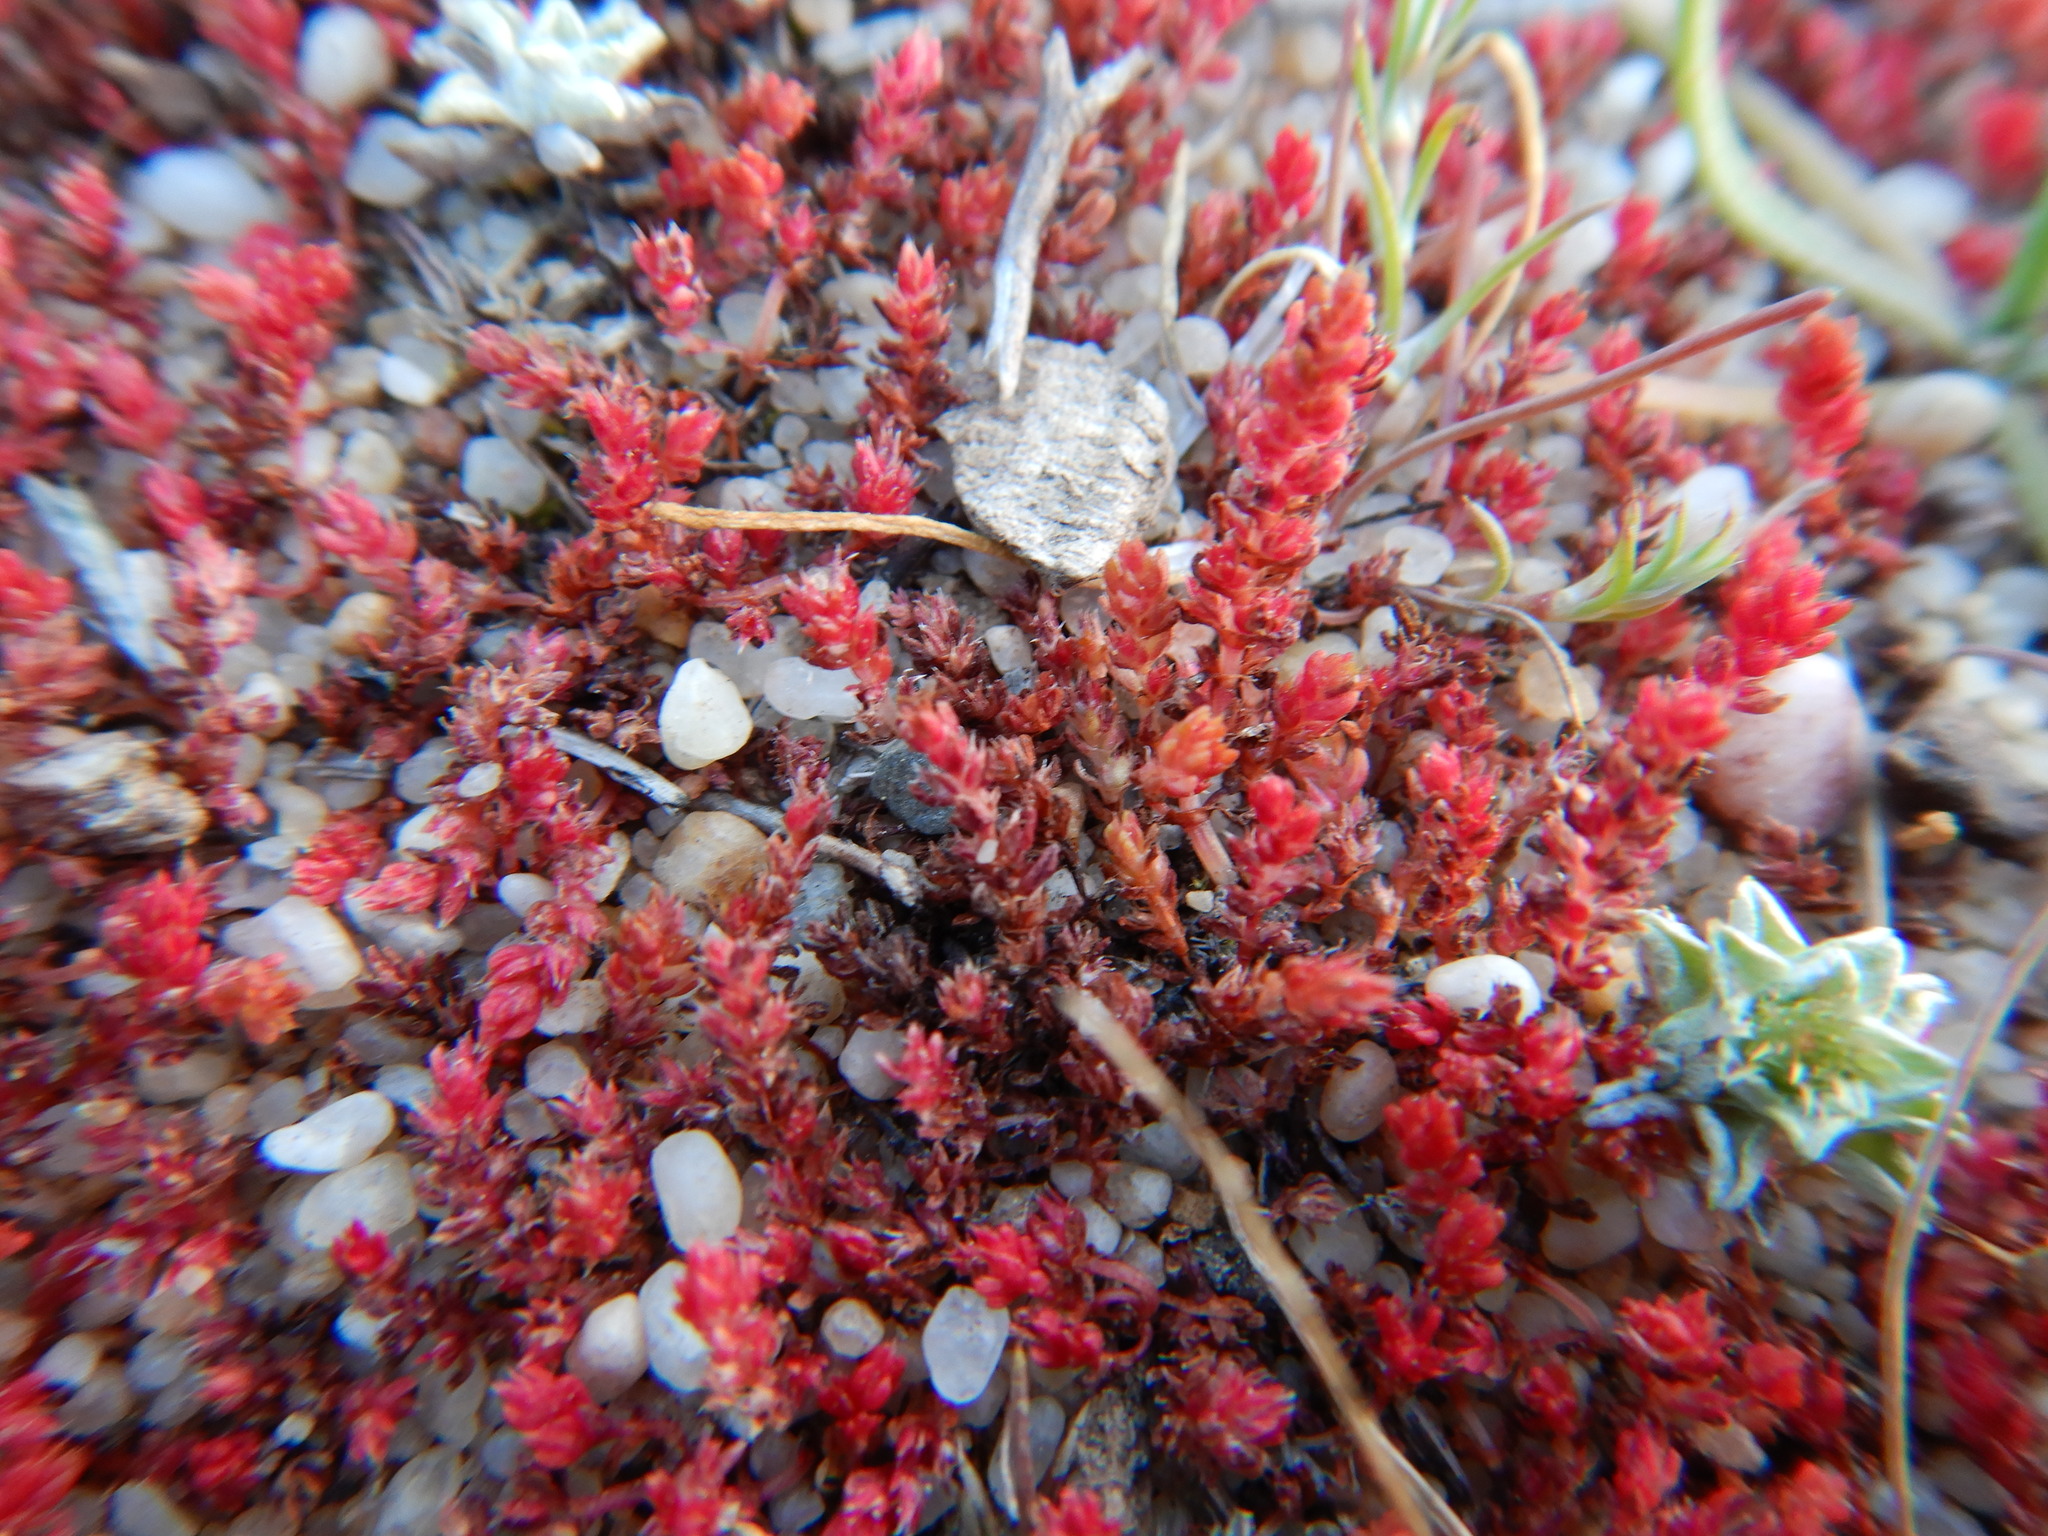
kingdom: Plantae
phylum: Tracheophyta
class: Magnoliopsida
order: Saxifragales
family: Crassulaceae
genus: Crassula
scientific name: Crassula tillaea
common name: Mossy stonecrop
